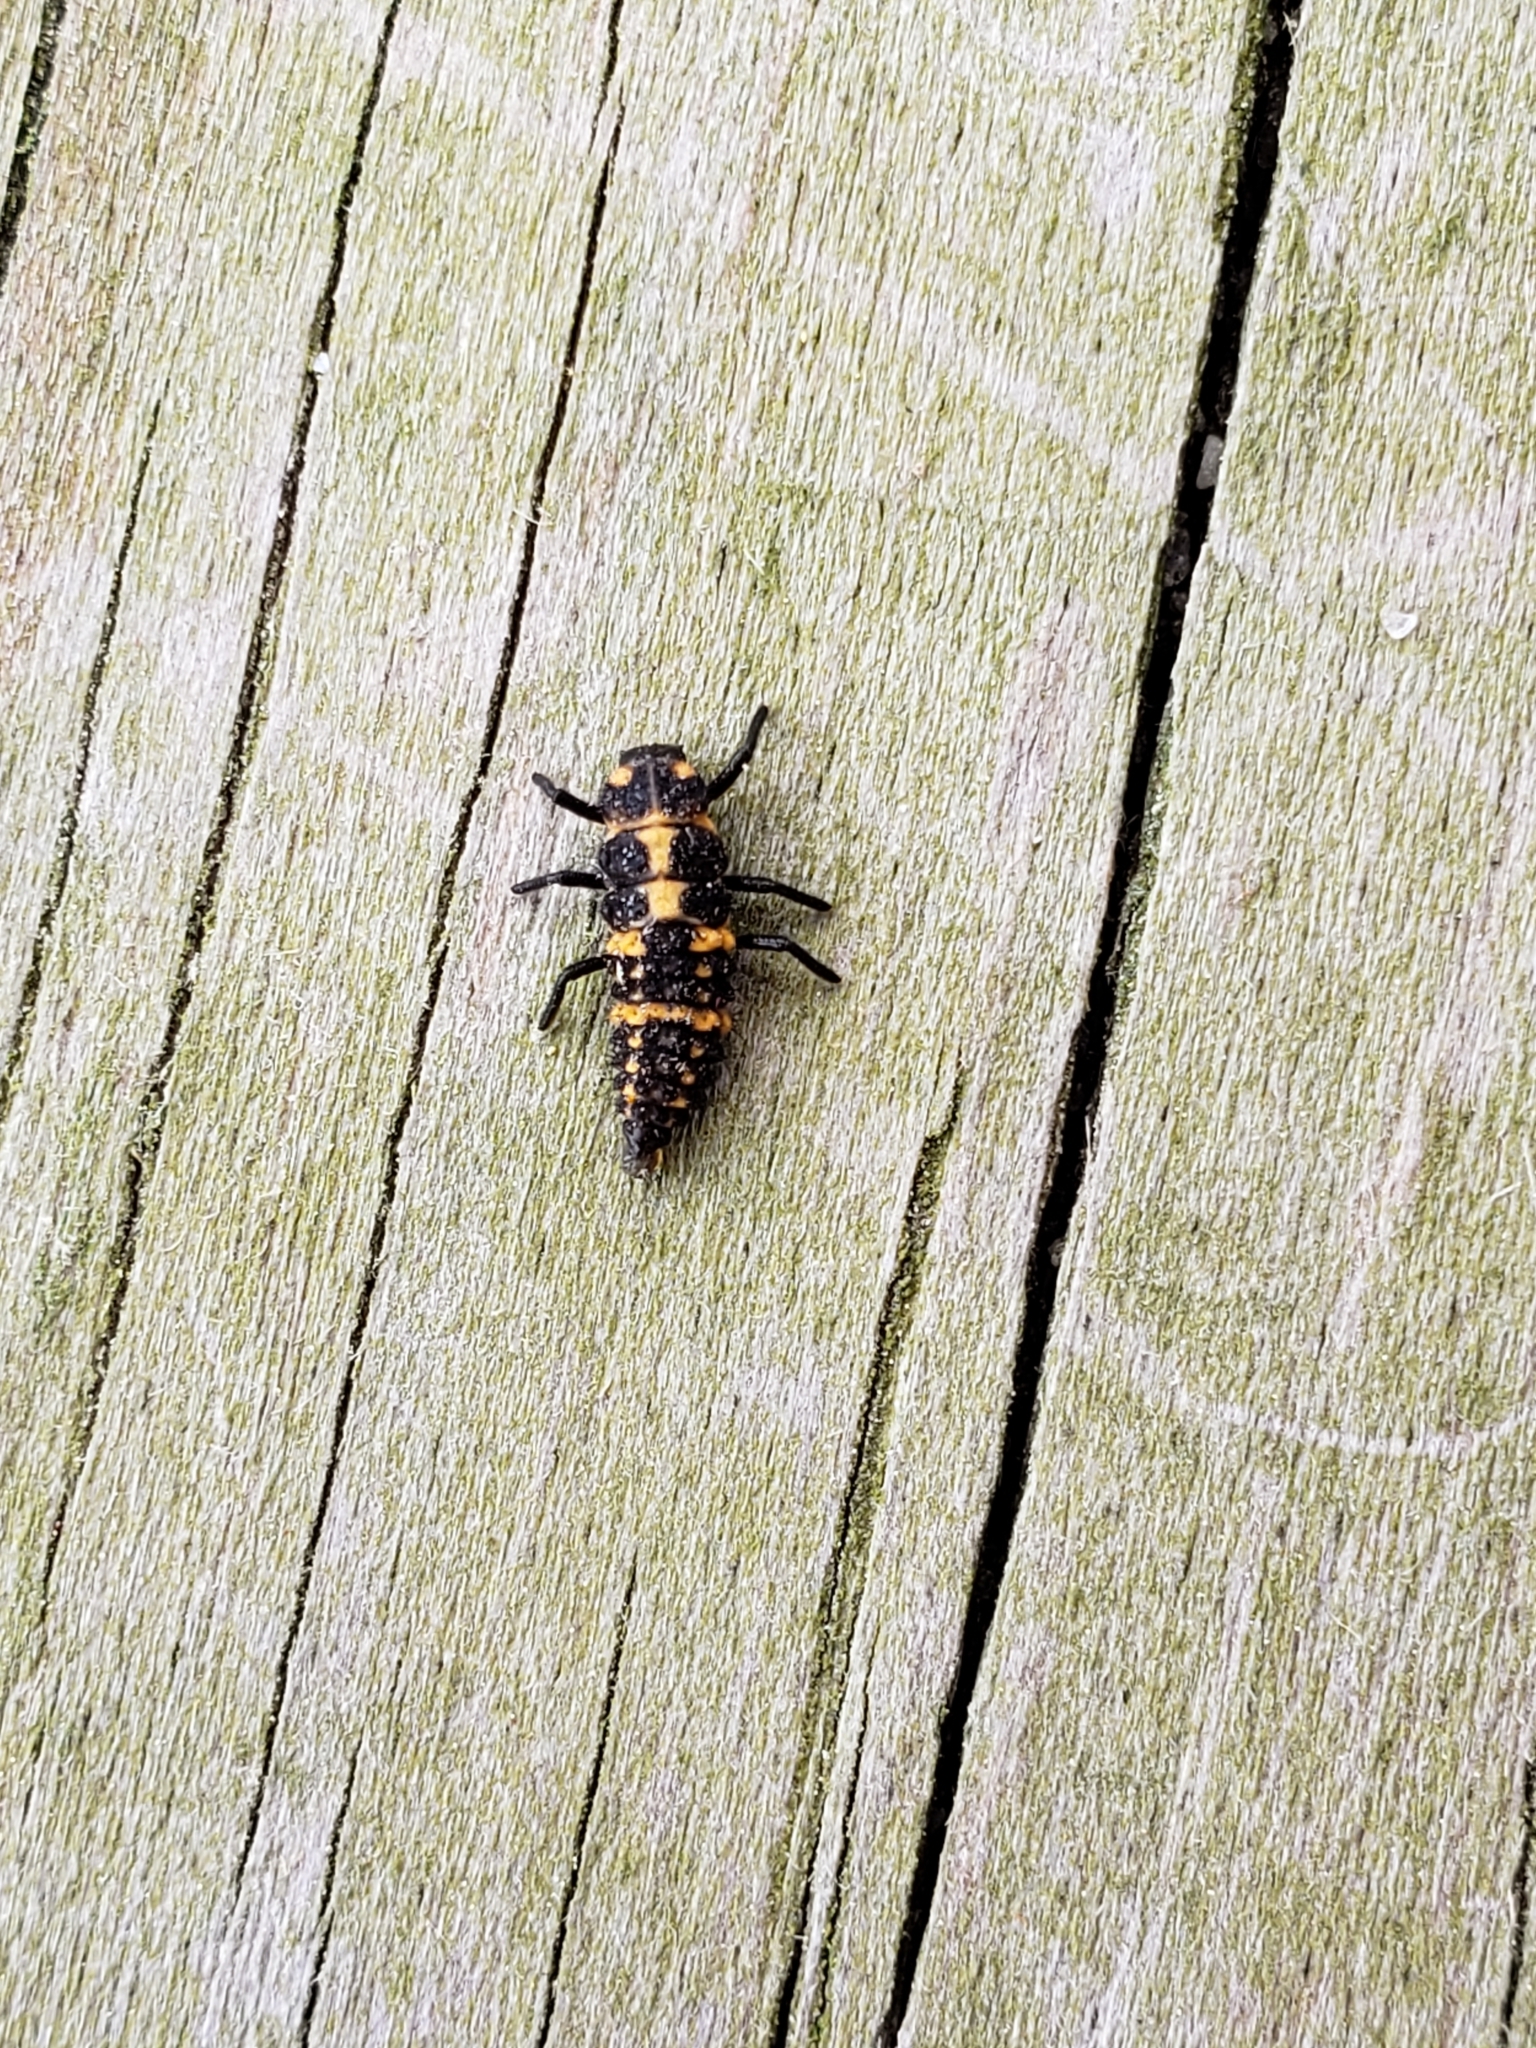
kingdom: Animalia
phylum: Arthropoda
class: Insecta
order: Coleoptera
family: Coccinellidae
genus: Coleomegilla
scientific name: Coleomegilla maculata
